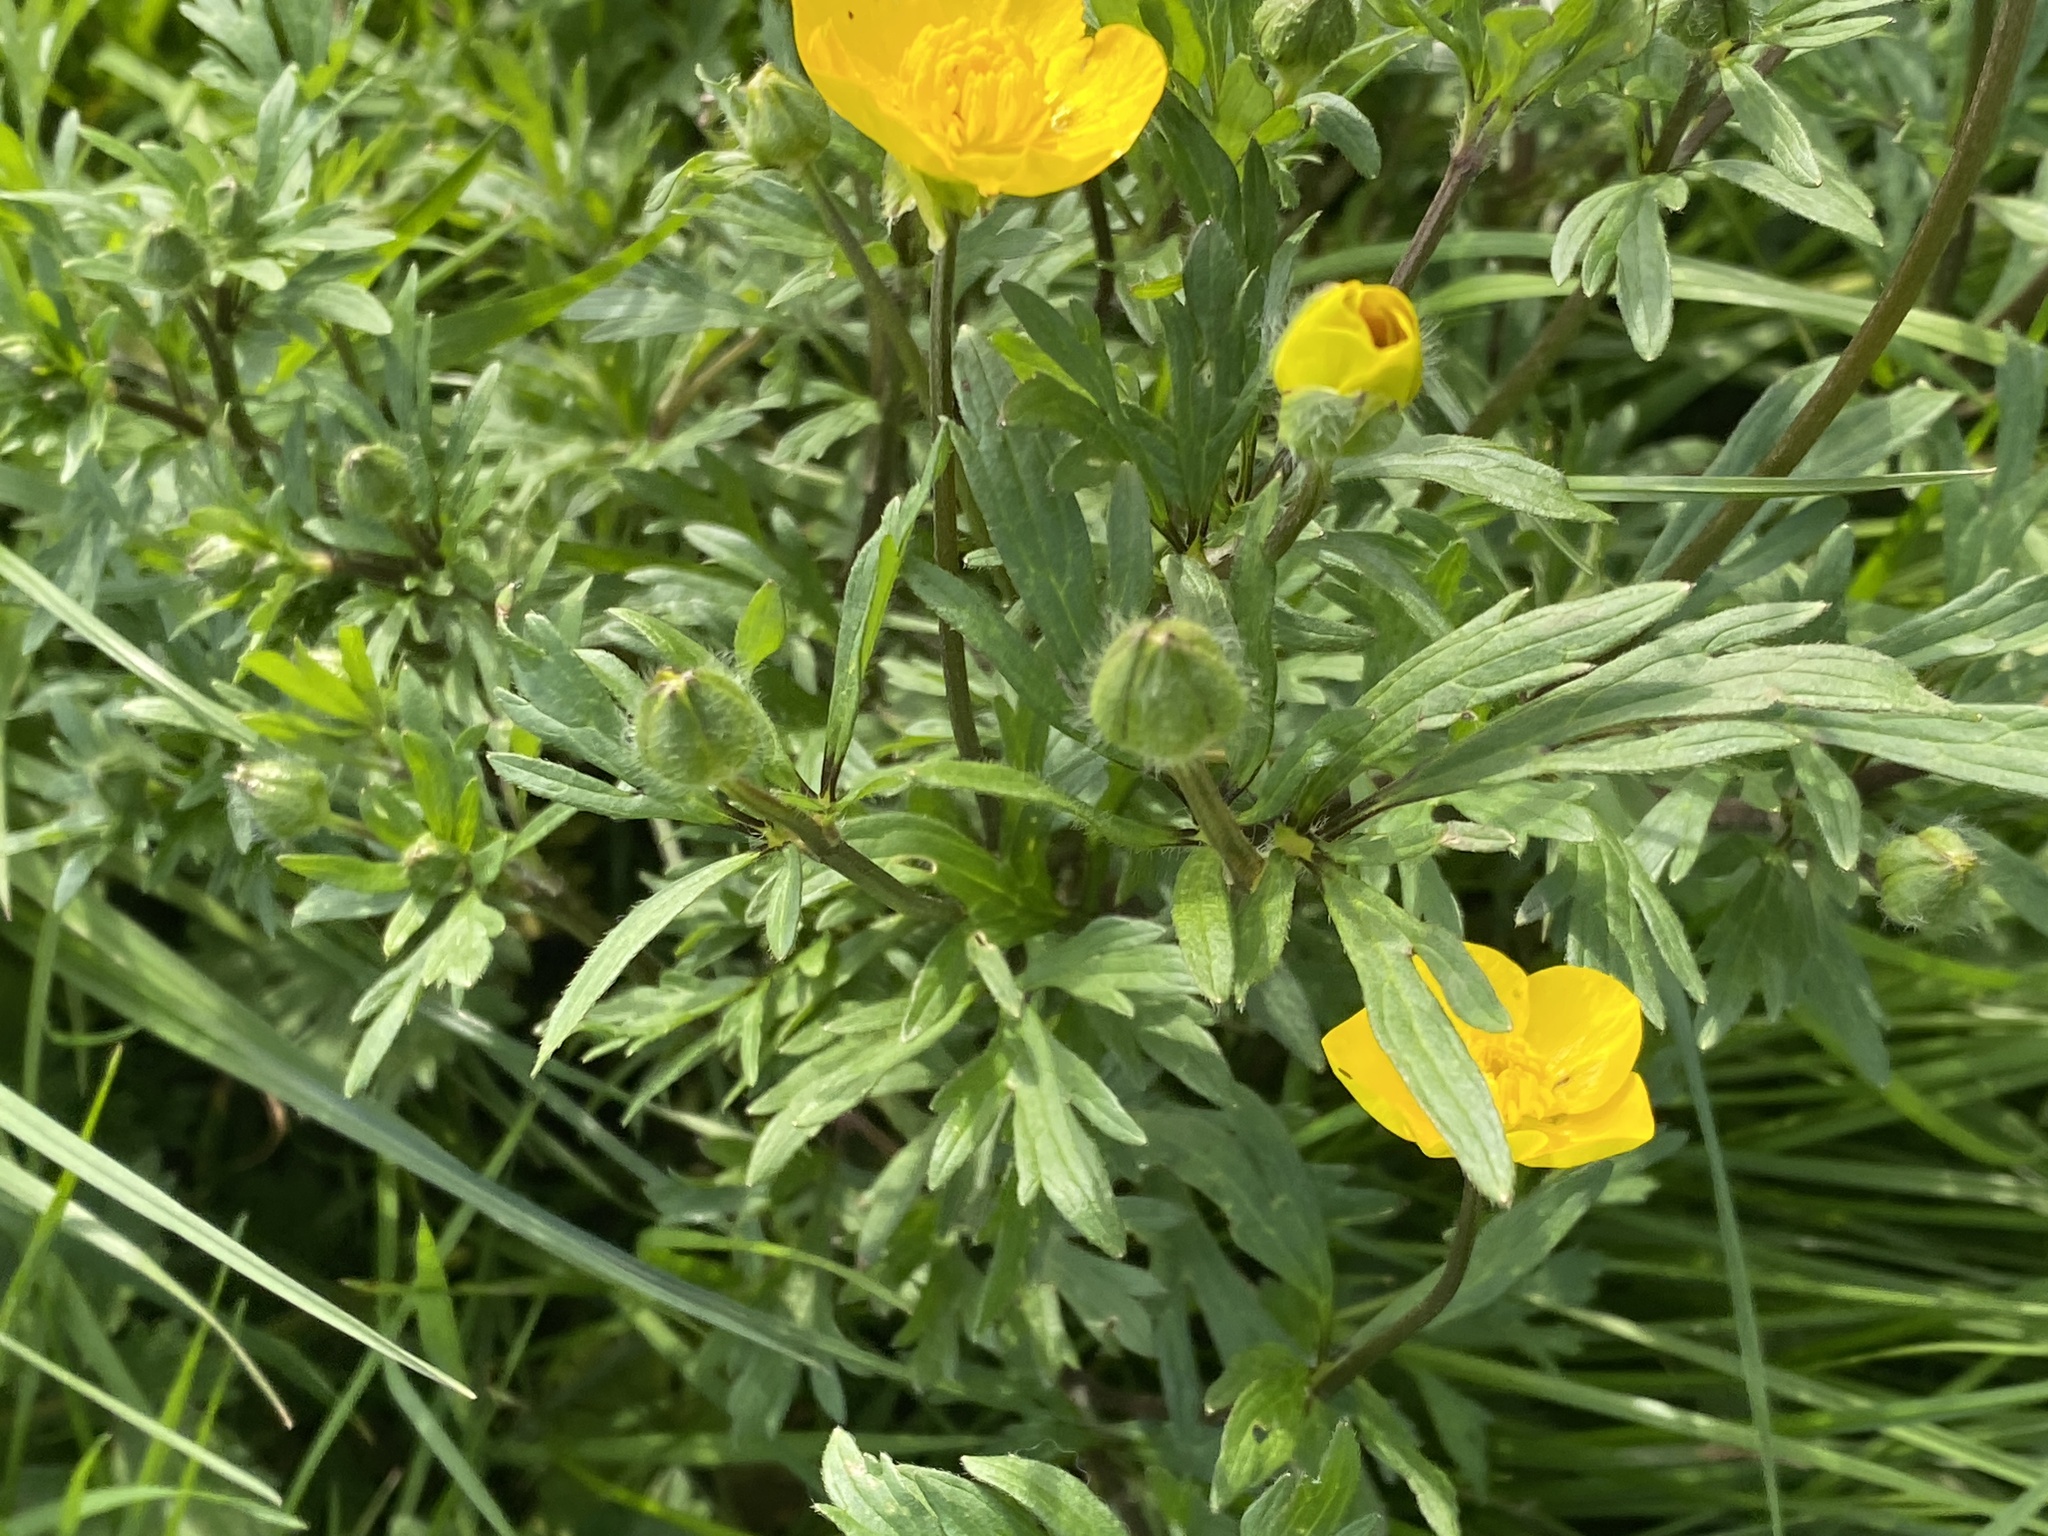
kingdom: Plantae
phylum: Tracheophyta
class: Magnoliopsida
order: Ranunculales
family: Ranunculaceae
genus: Ranunculus
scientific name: Ranunculus bulbosus
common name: Bulbous buttercup
